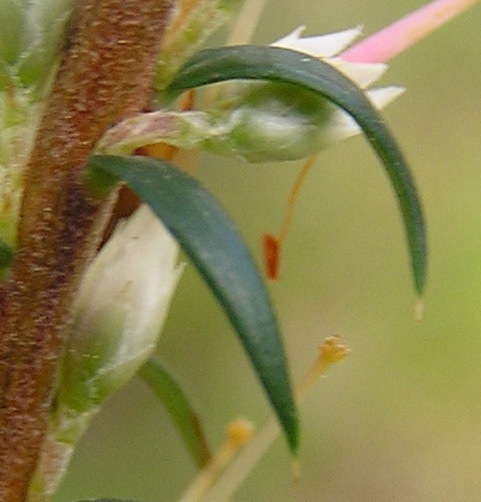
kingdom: Plantae
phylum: Tracheophyta
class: Magnoliopsida
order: Ericales
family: Ericaceae
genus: Epacris
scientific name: Epacris impressa
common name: Common-heath
